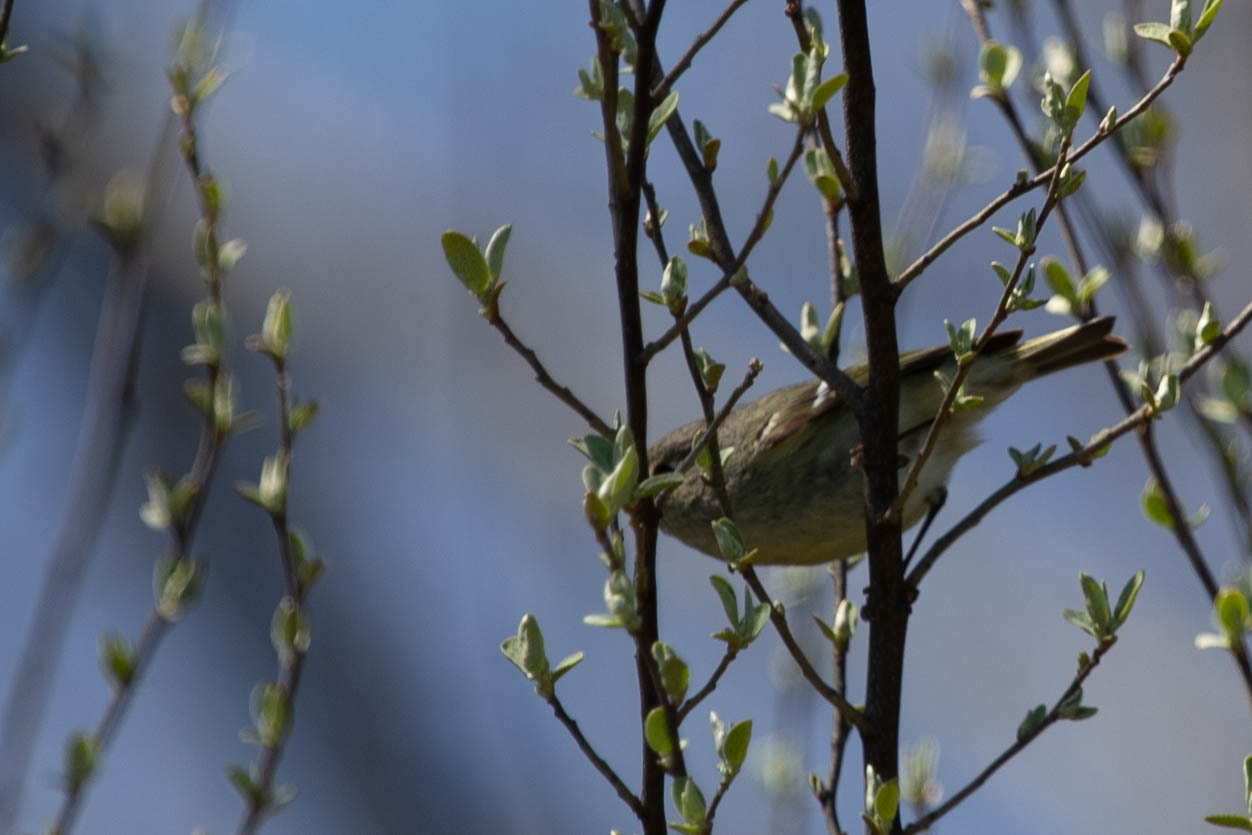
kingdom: Animalia
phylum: Chordata
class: Aves
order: Passeriformes
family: Regulidae
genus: Regulus
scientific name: Regulus calendula
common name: Ruby-crowned kinglet
